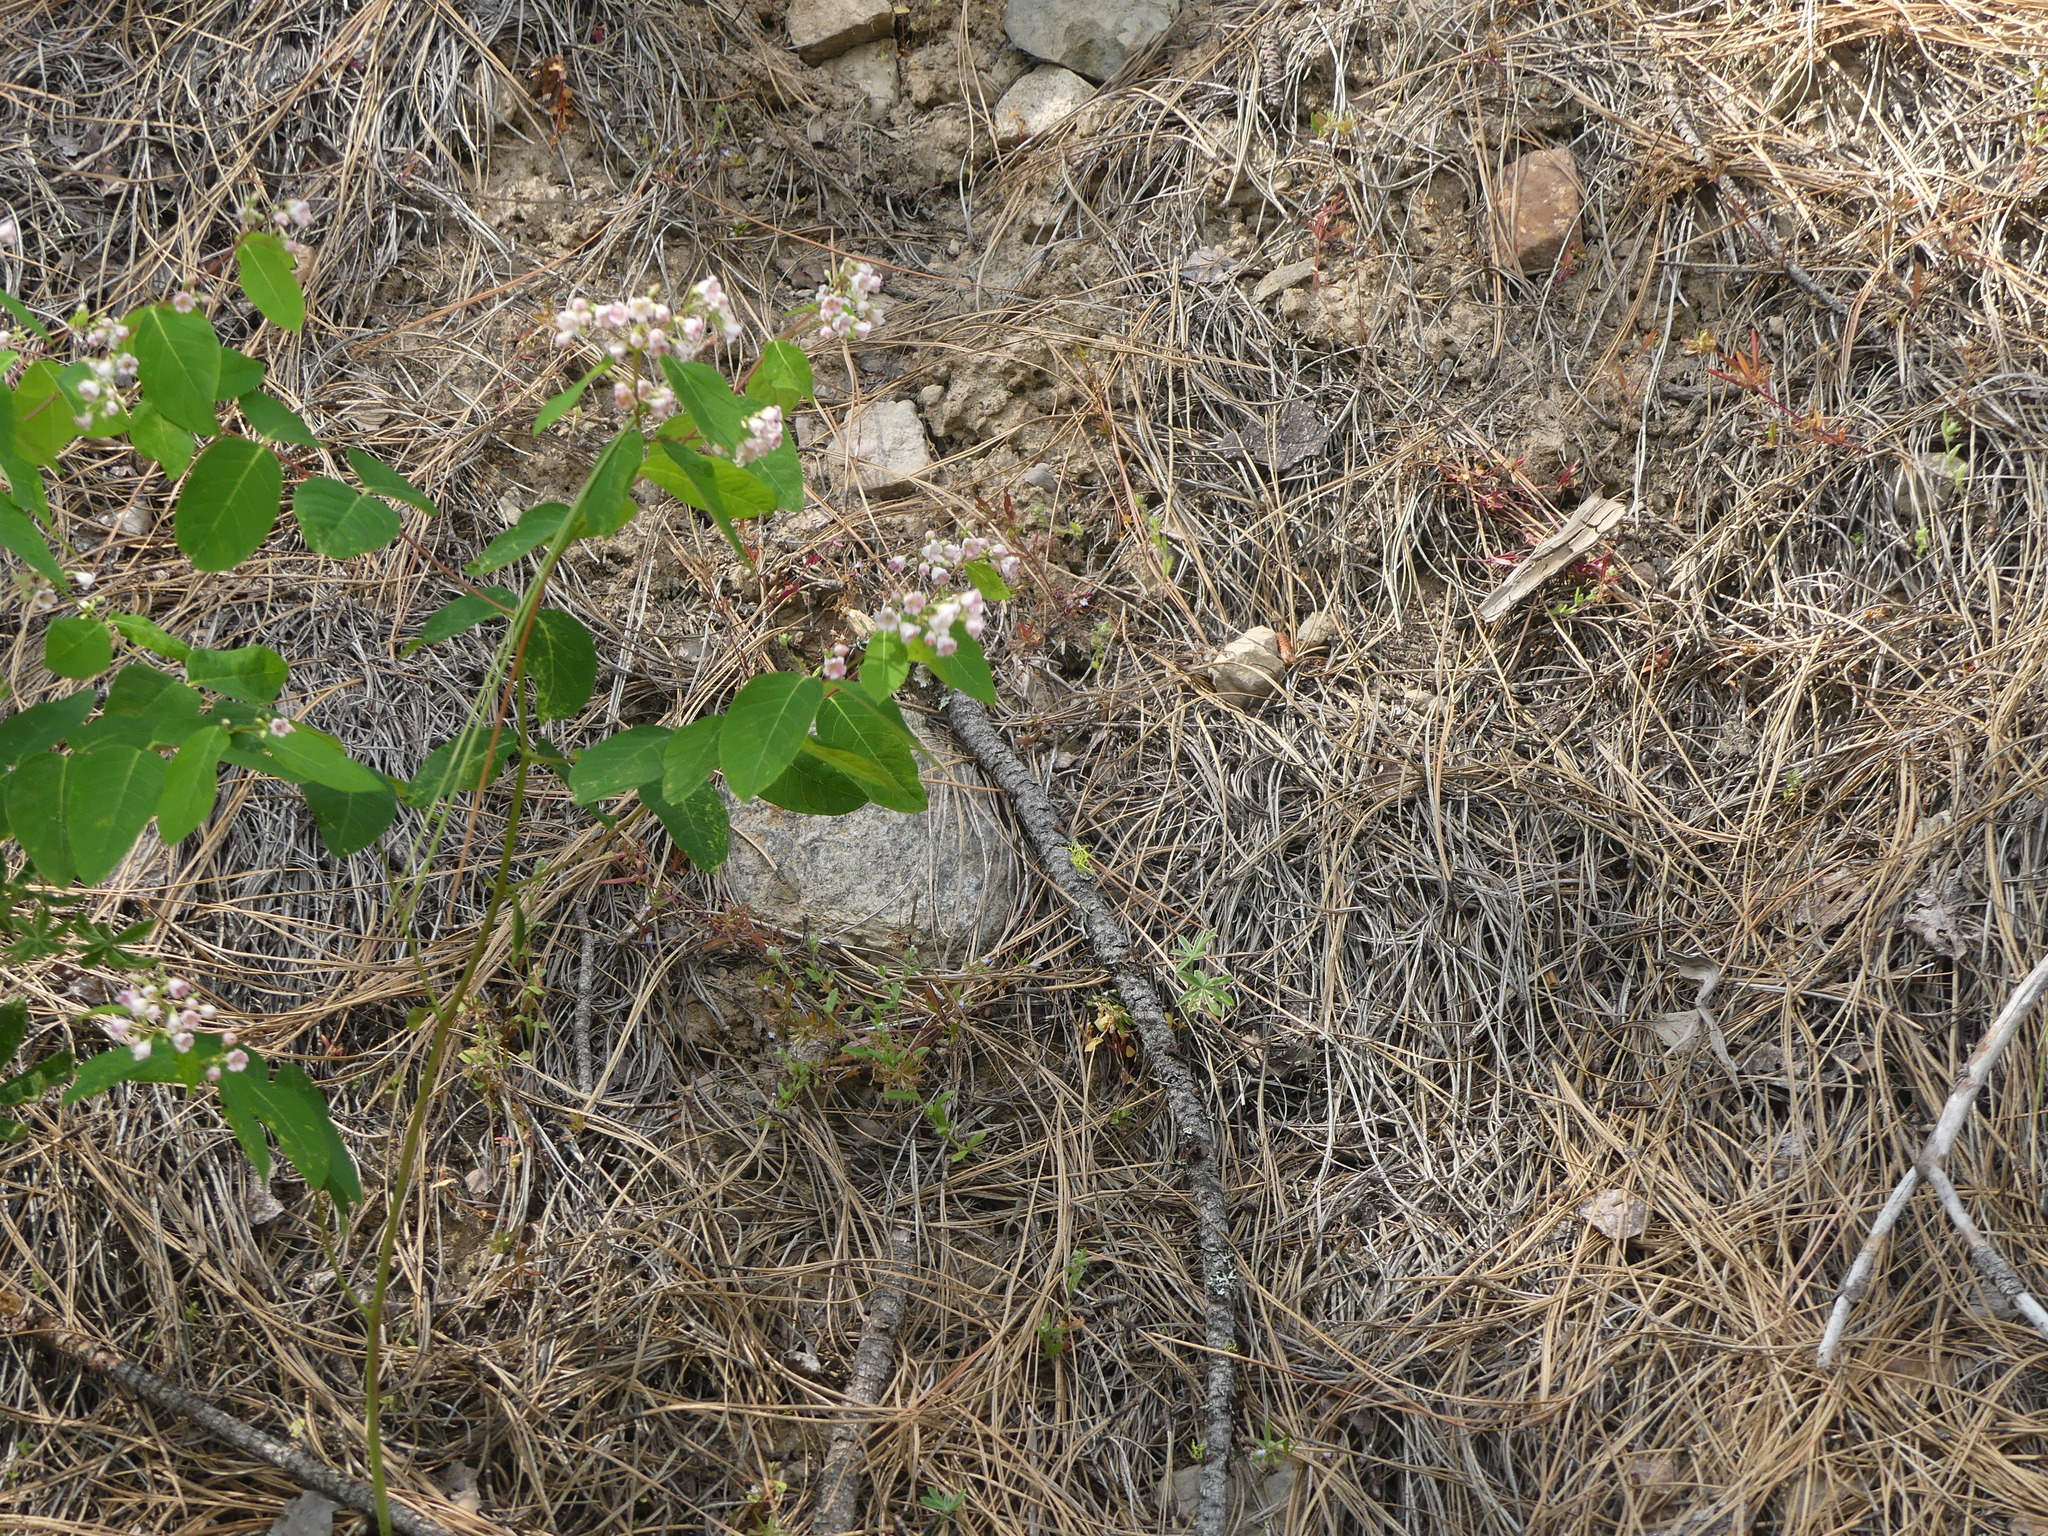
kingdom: Plantae
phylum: Tracheophyta
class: Magnoliopsida
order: Gentianales
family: Apocynaceae
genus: Apocynum
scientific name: Apocynum androsaemifolium
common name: Spreading dogbane
